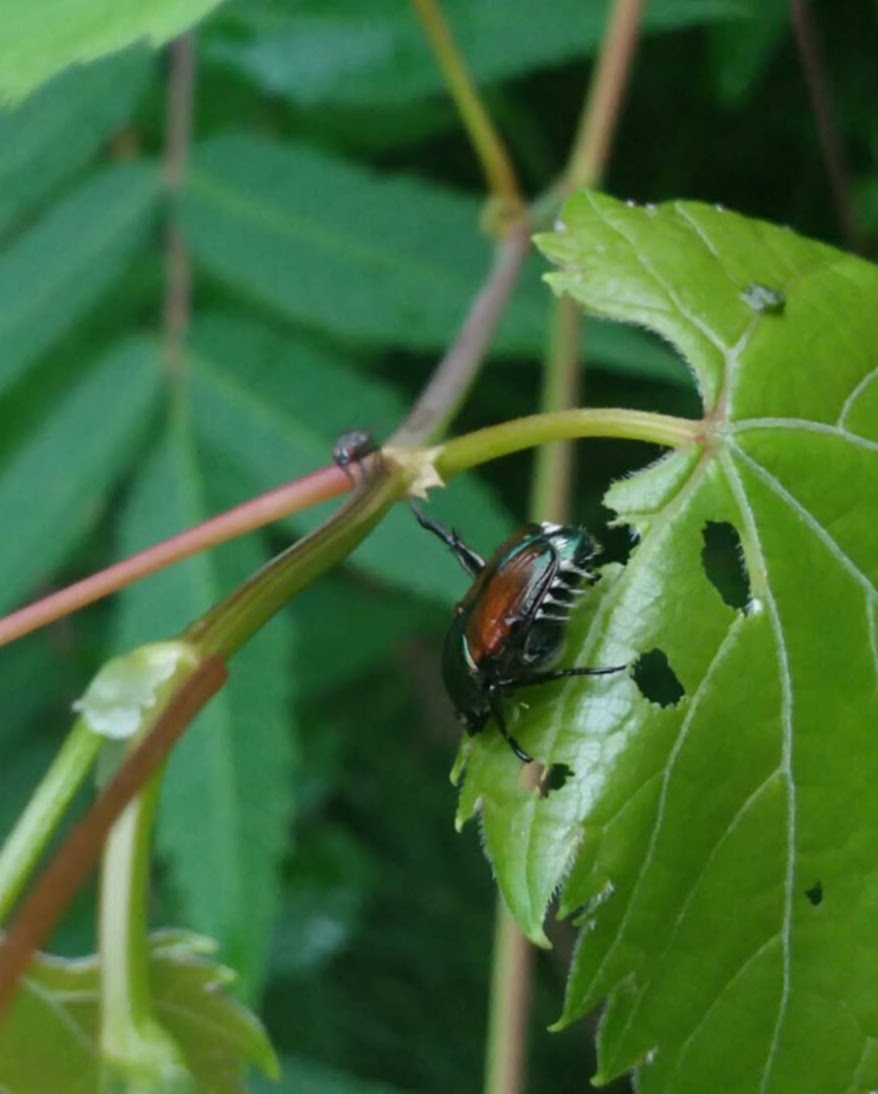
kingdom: Animalia
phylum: Arthropoda
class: Insecta
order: Coleoptera
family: Scarabaeidae
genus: Popillia
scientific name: Popillia japonica
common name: Japanese beetle
